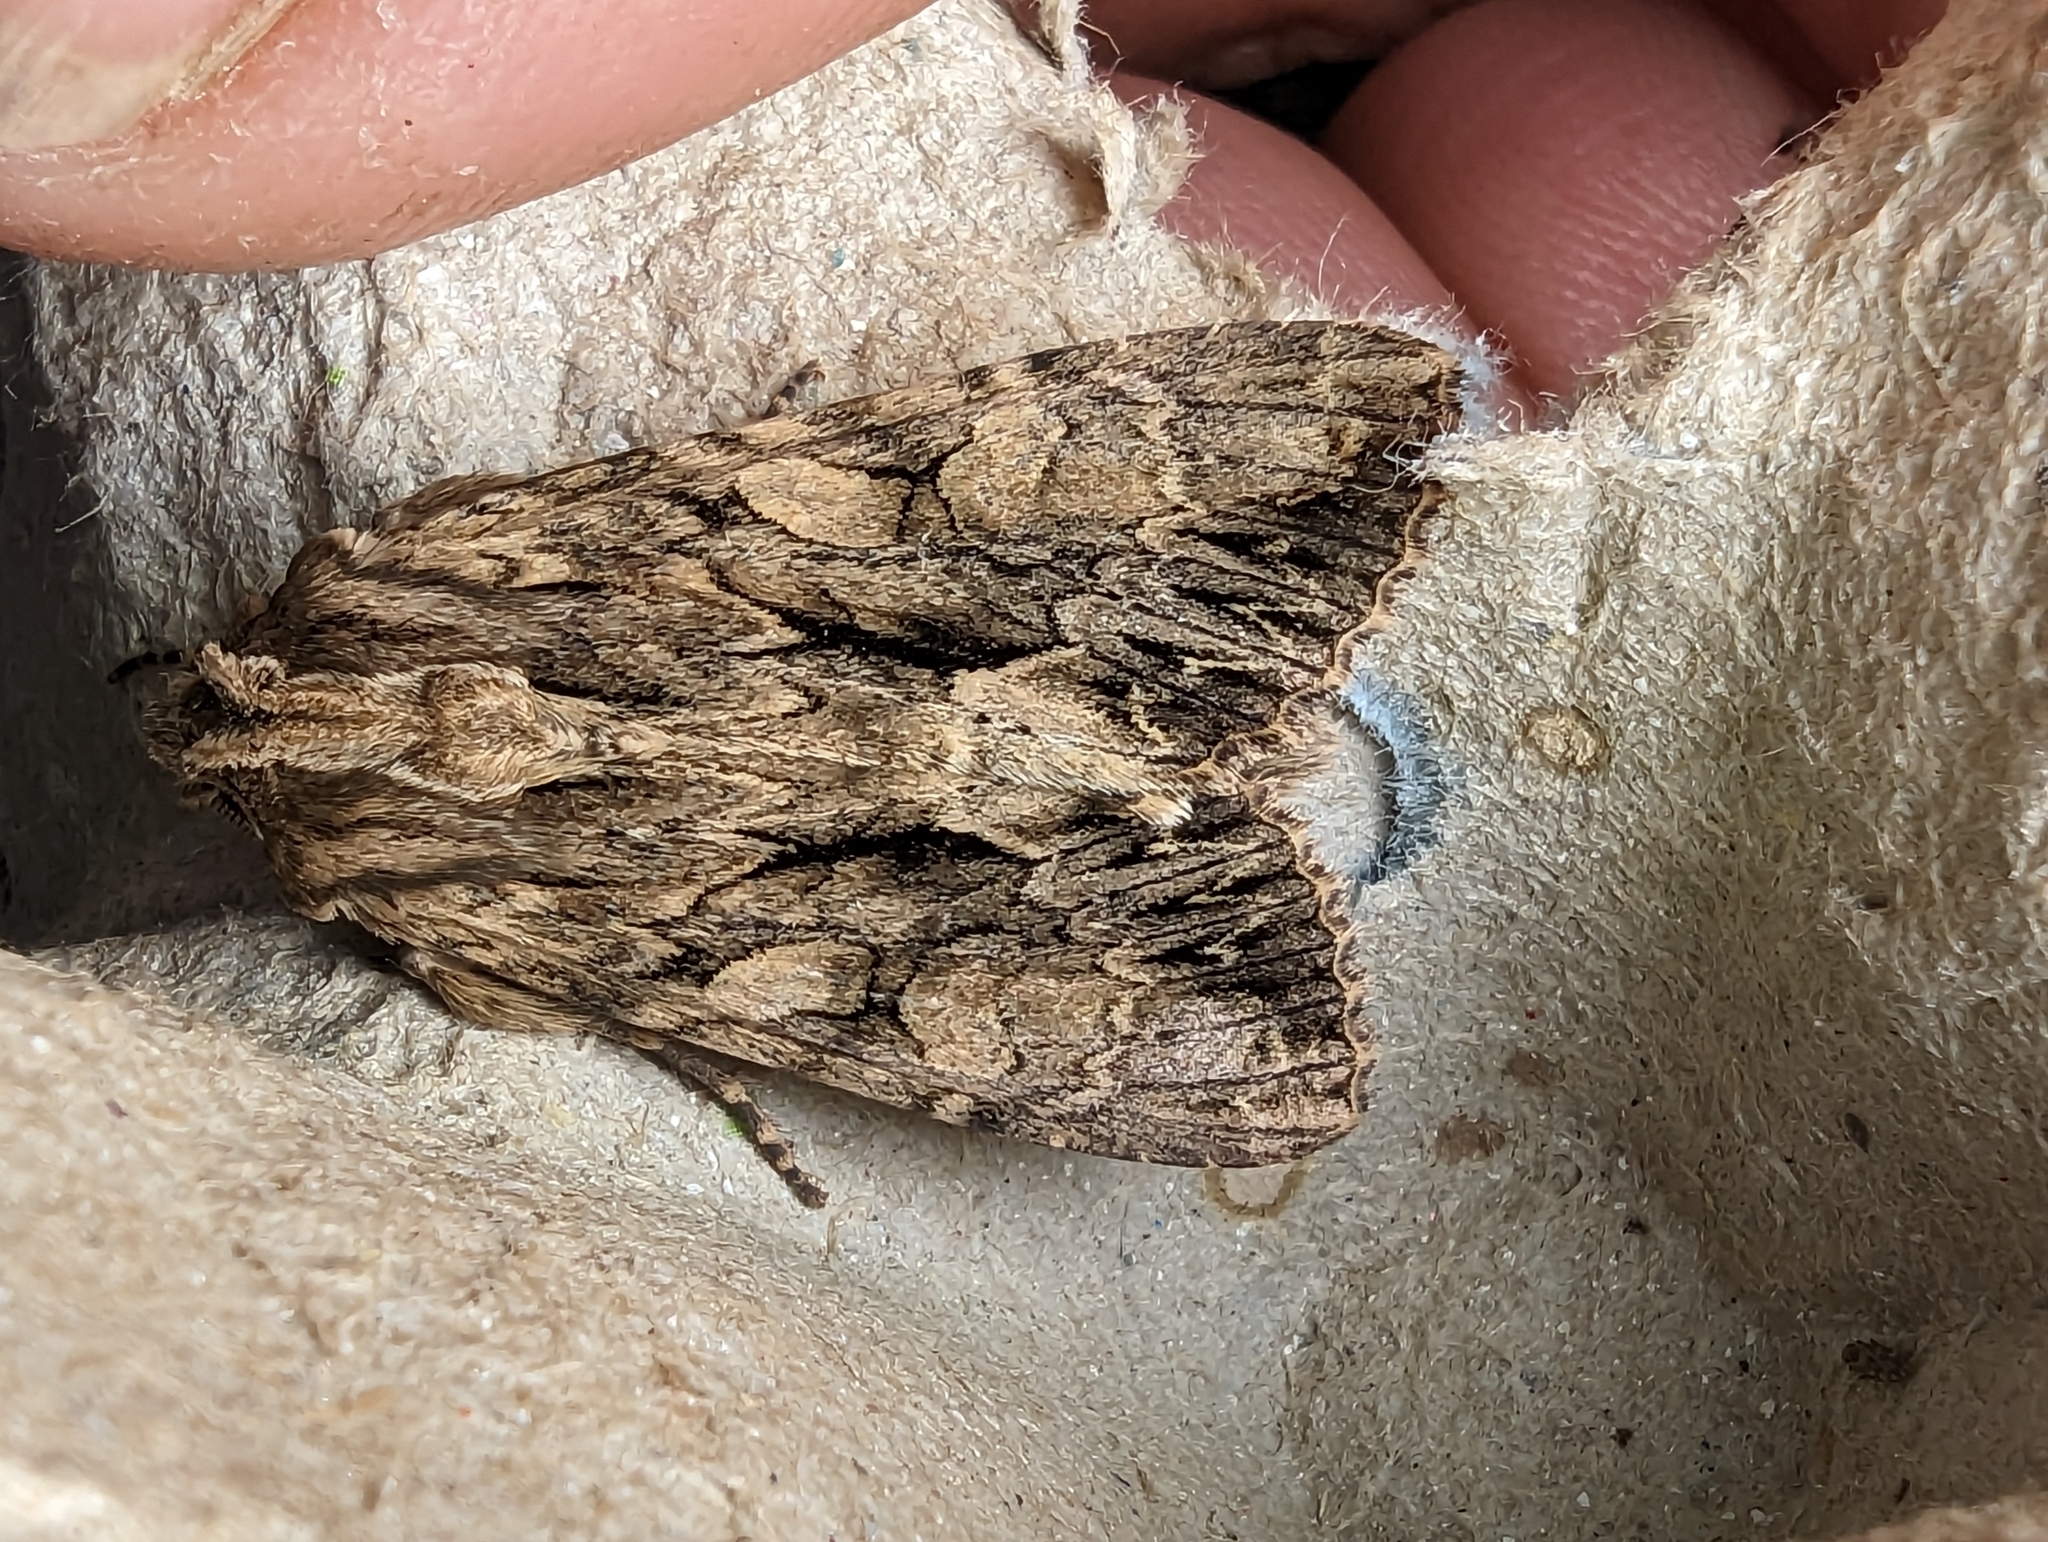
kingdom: Animalia
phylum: Arthropoda
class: Insecta
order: Lepidoptera
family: Noctuidae
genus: Apamea
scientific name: Apamea monoglypha
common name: Dark arches
